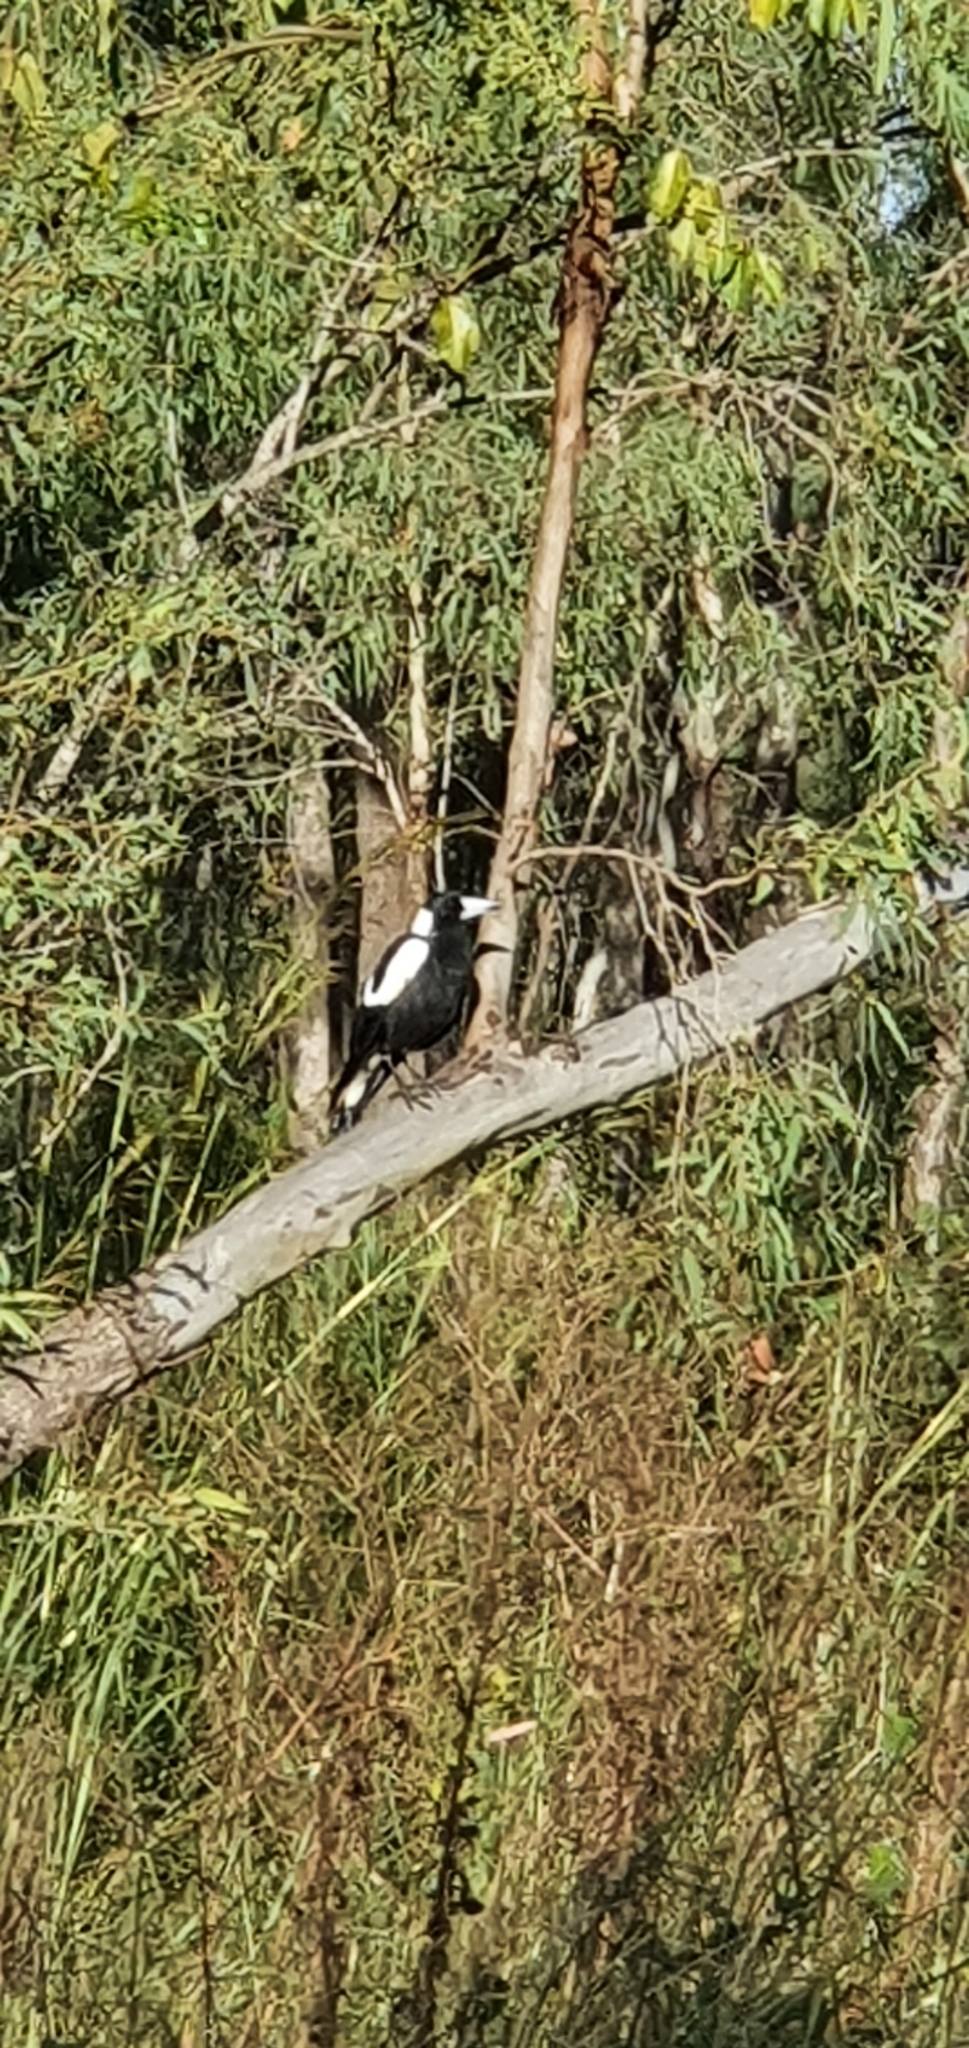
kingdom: Animalia
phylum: Chordata
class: Aves
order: Passeriformes
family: Cracticidae
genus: Gymnorhina
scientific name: Gymnorhina tibicen
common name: Australian magpie
